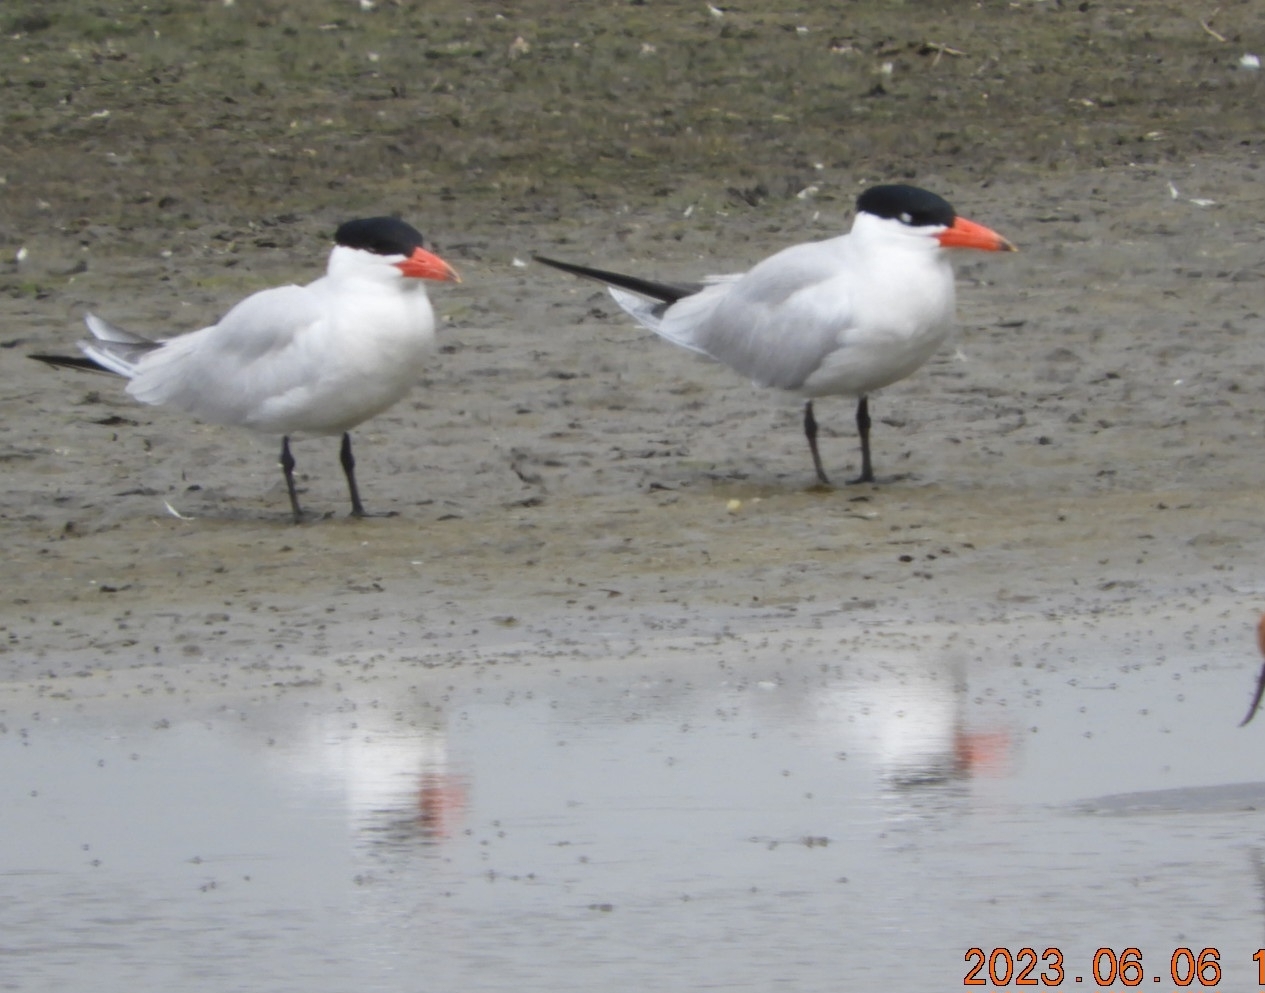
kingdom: Animalia
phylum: Chordata
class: Aves
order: Charadriiformes
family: Laridae
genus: Hydroprogne
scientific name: Hydroprogne caspia
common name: Caspian tern
